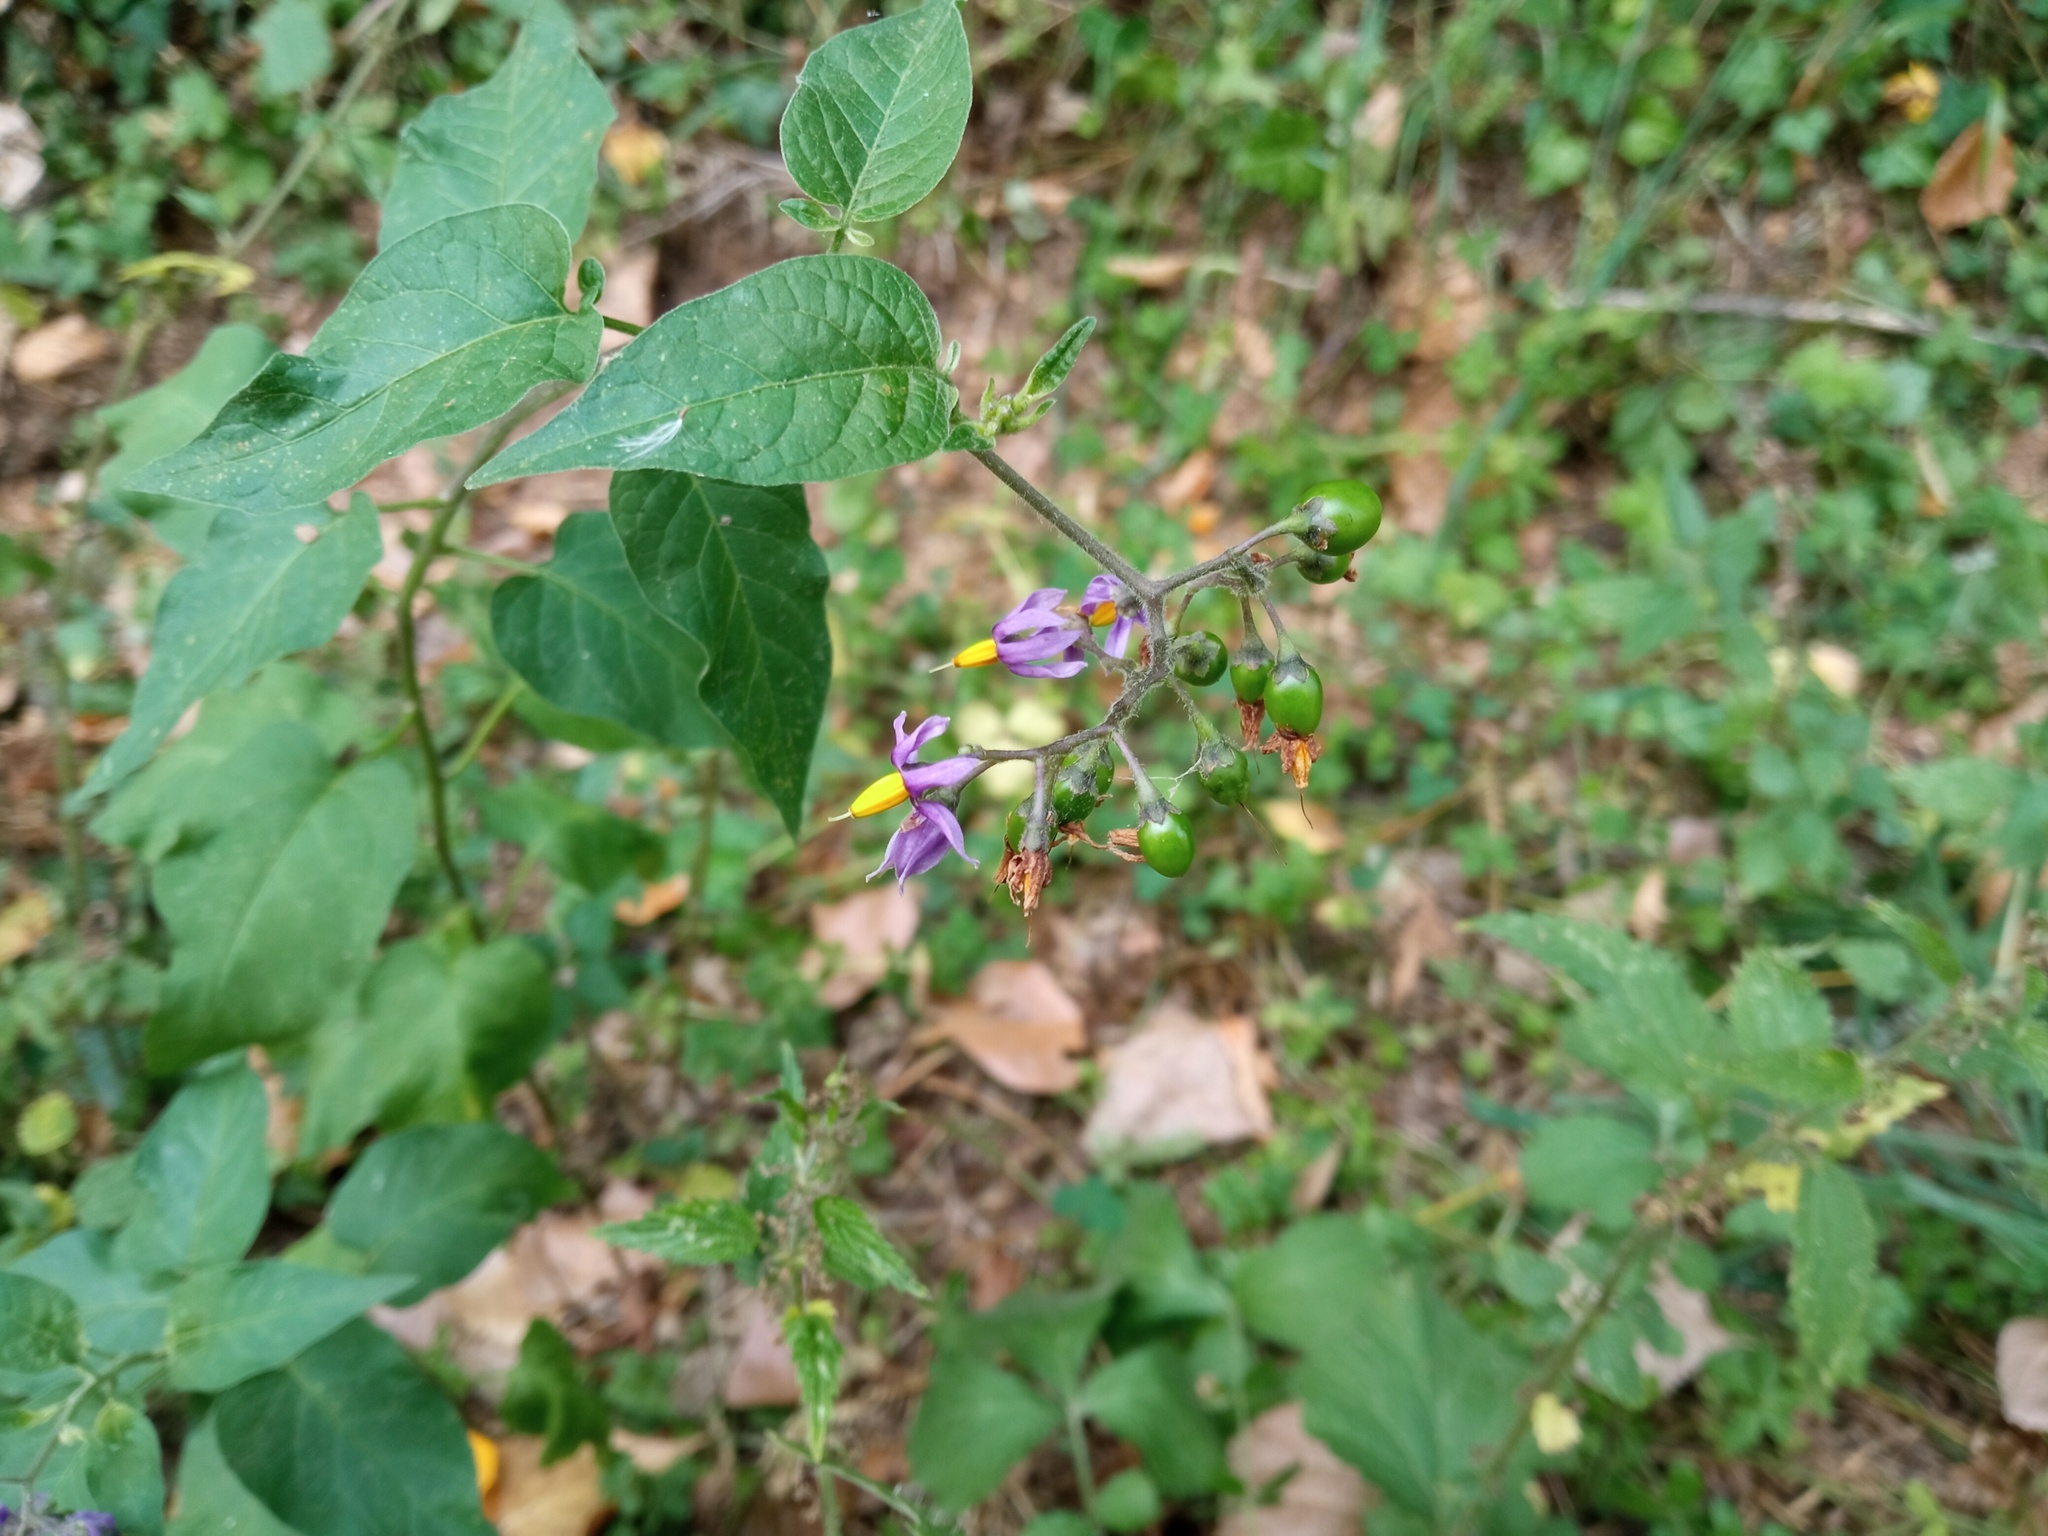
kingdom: Plantae
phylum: Tracheophyta
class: Magnoliopsida
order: Solanales
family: Solanaceae
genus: Solanum
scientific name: Solanum dulcamara
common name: Climbing nightshade
